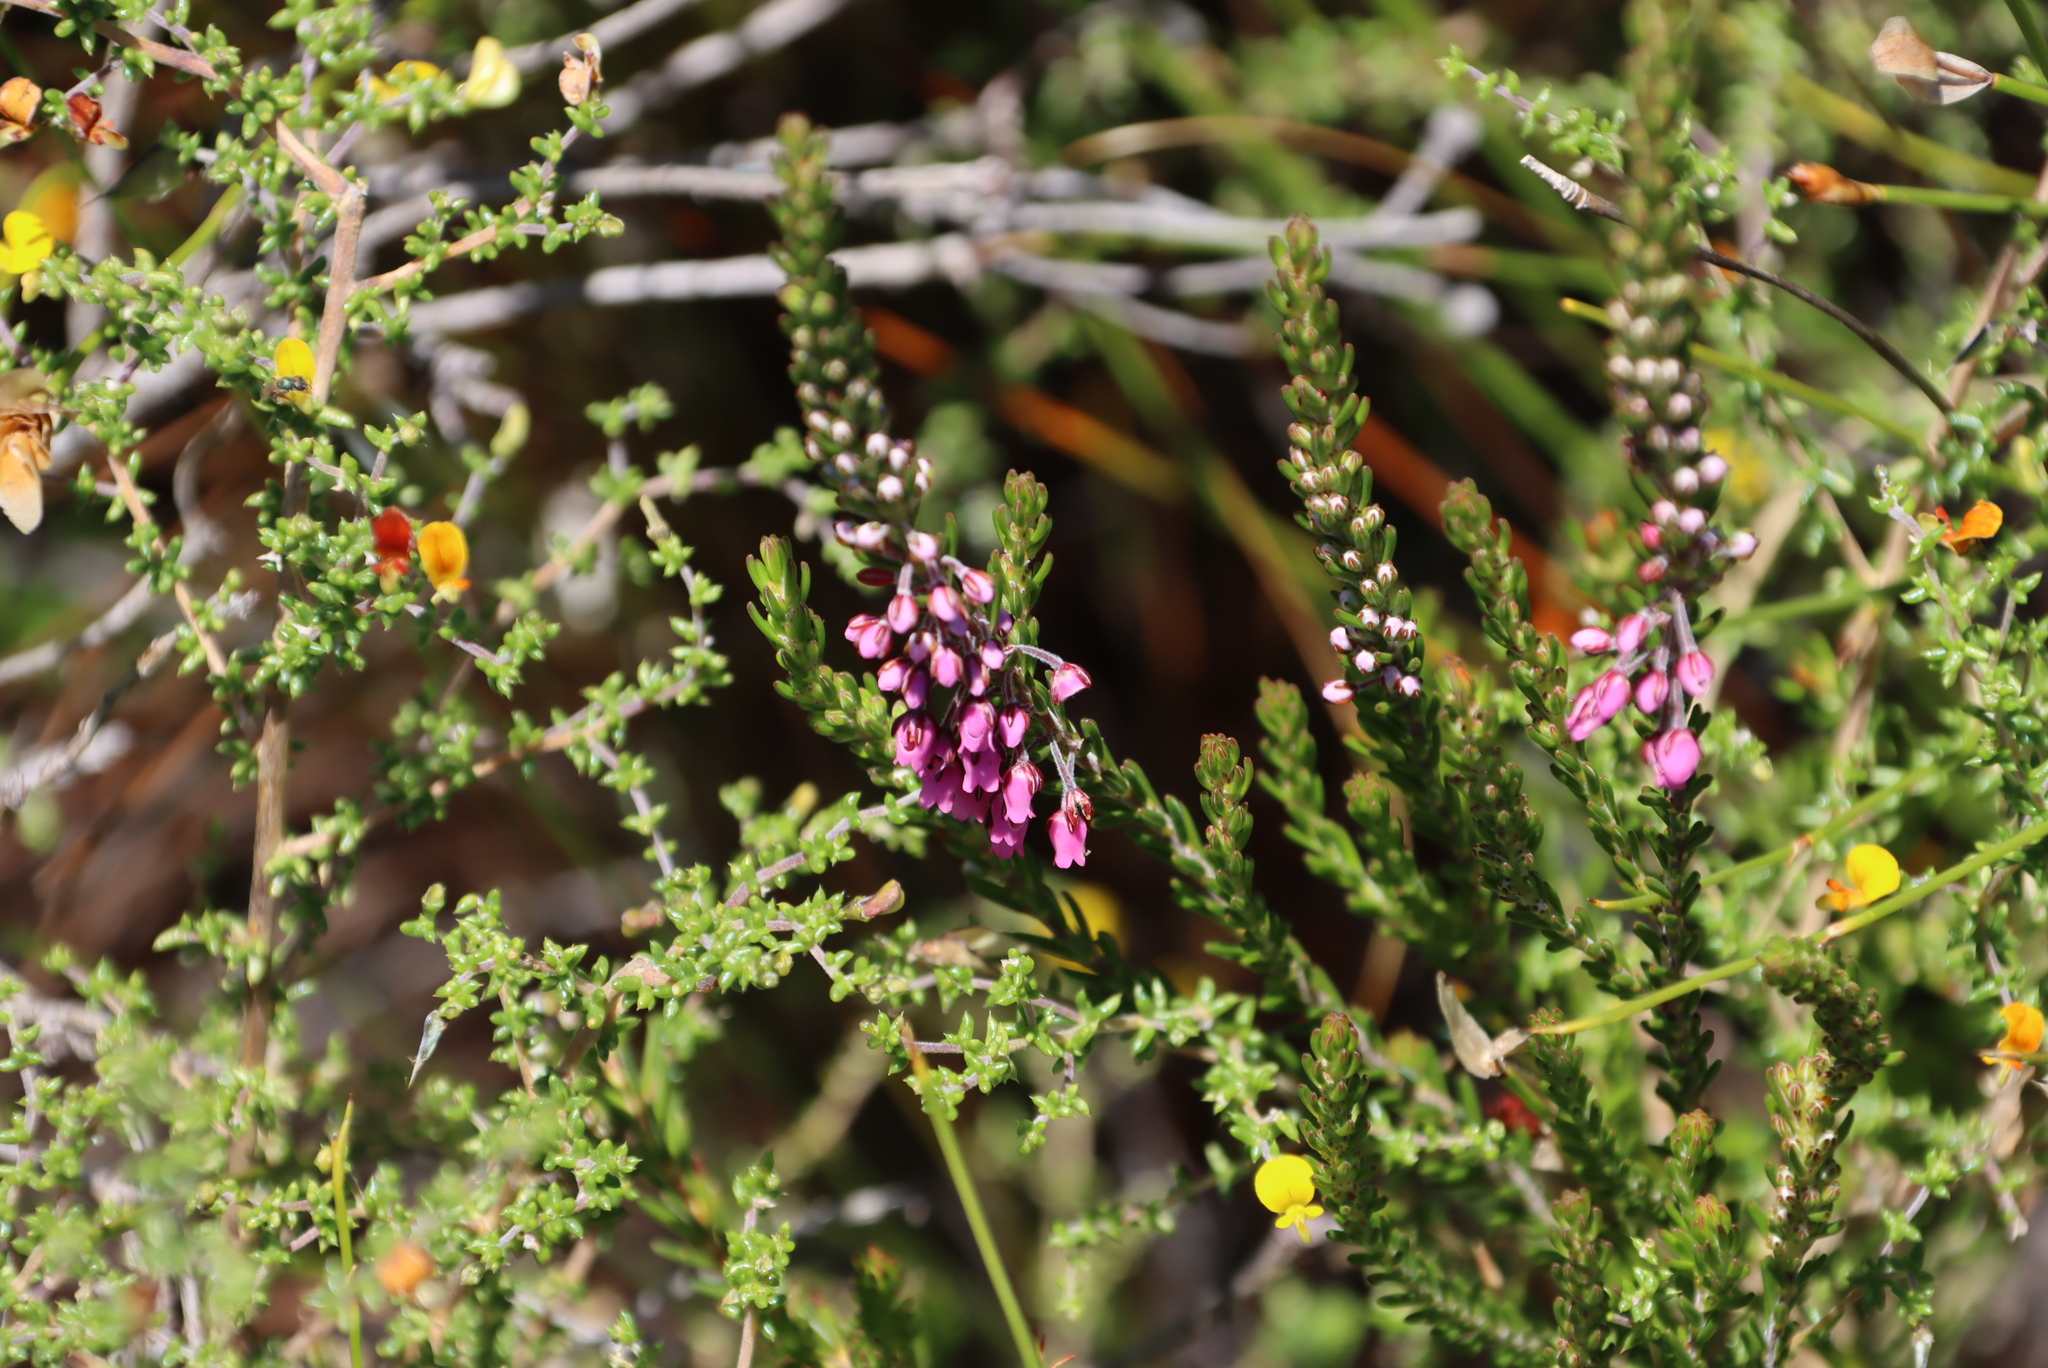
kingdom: Plantae
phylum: Tracheophyta
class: Magnoliopsida
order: Ericales
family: Ericaceae
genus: Erica
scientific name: Erica pulchella
